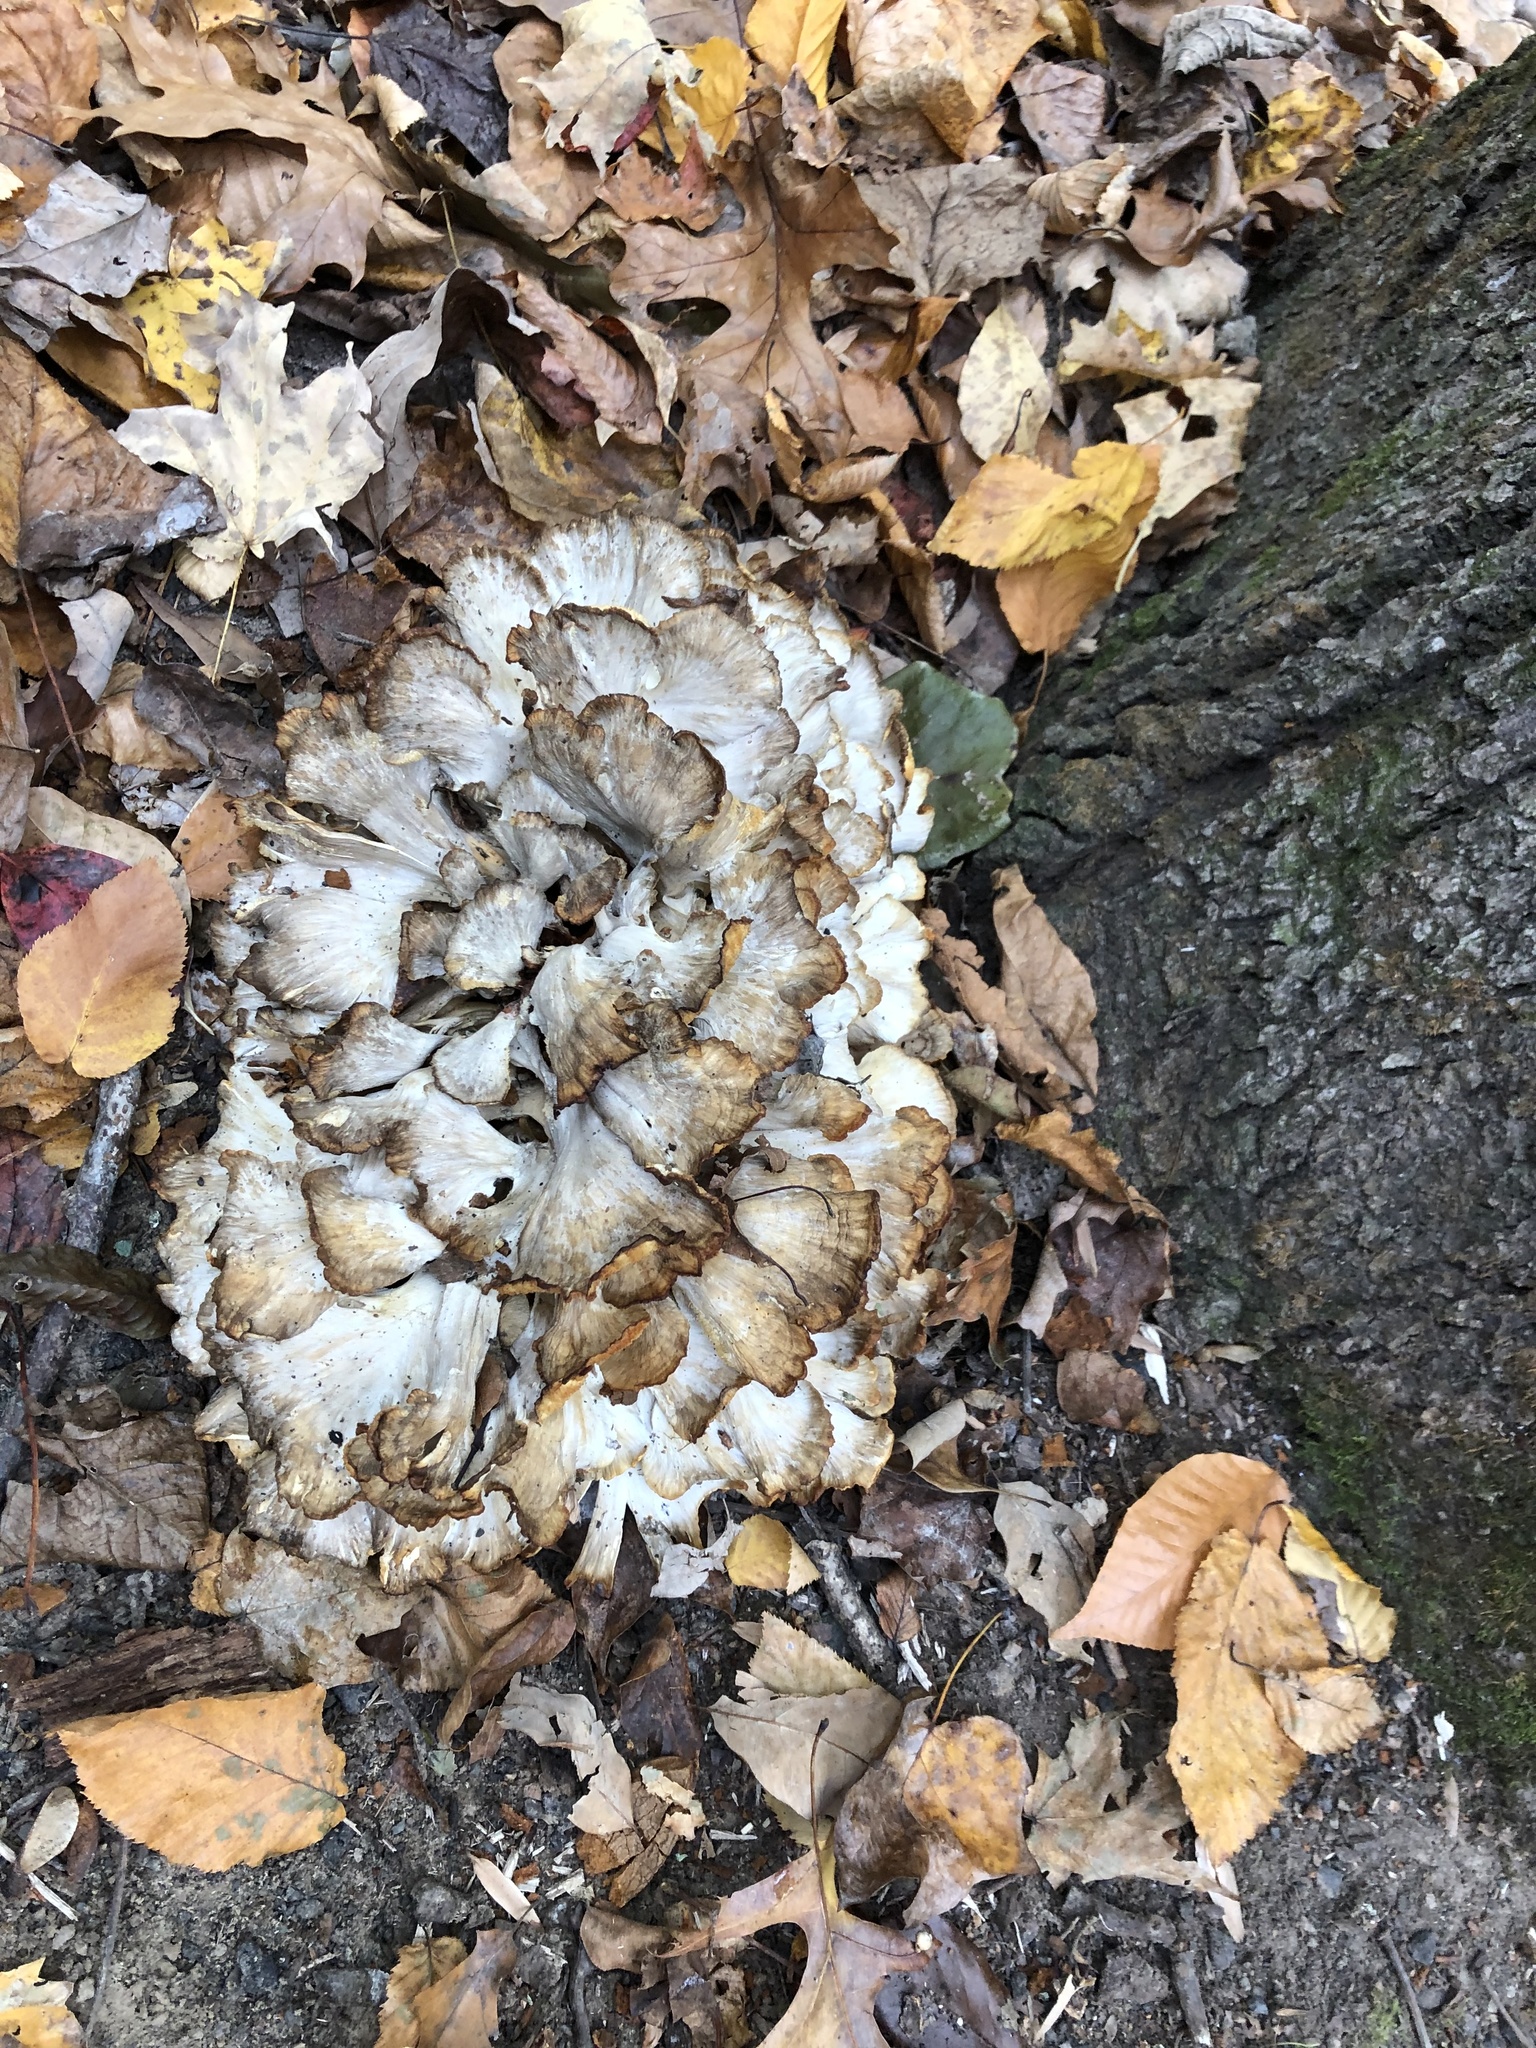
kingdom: Fungi
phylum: Basidiomycota
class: Agaricomycetes
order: Polyporales
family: Grifolaceae
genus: Grifola
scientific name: Grifola frondosa
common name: Hen of the woods
